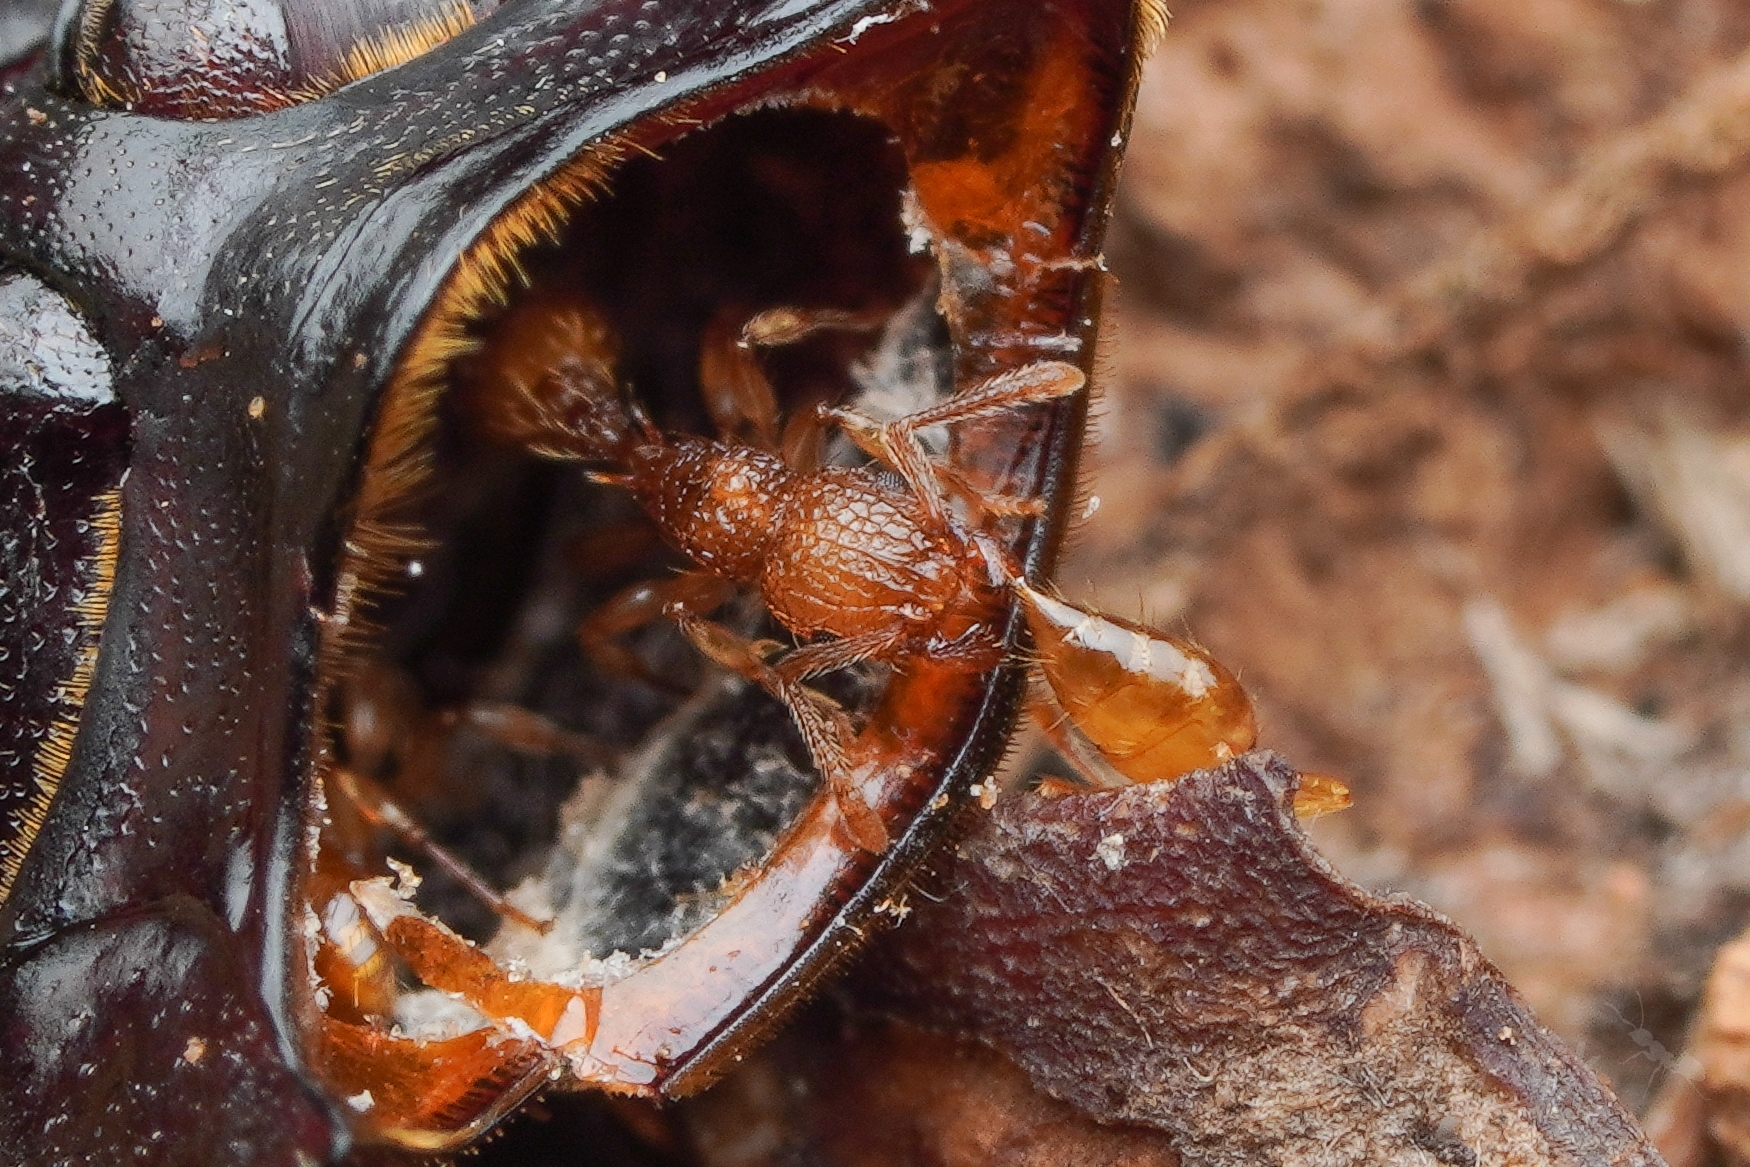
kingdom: Animalia
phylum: Arthropoda
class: Insecta
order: Hymenoptera
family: Formicidae
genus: Tetramorium
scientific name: Tetramorium nipponense
